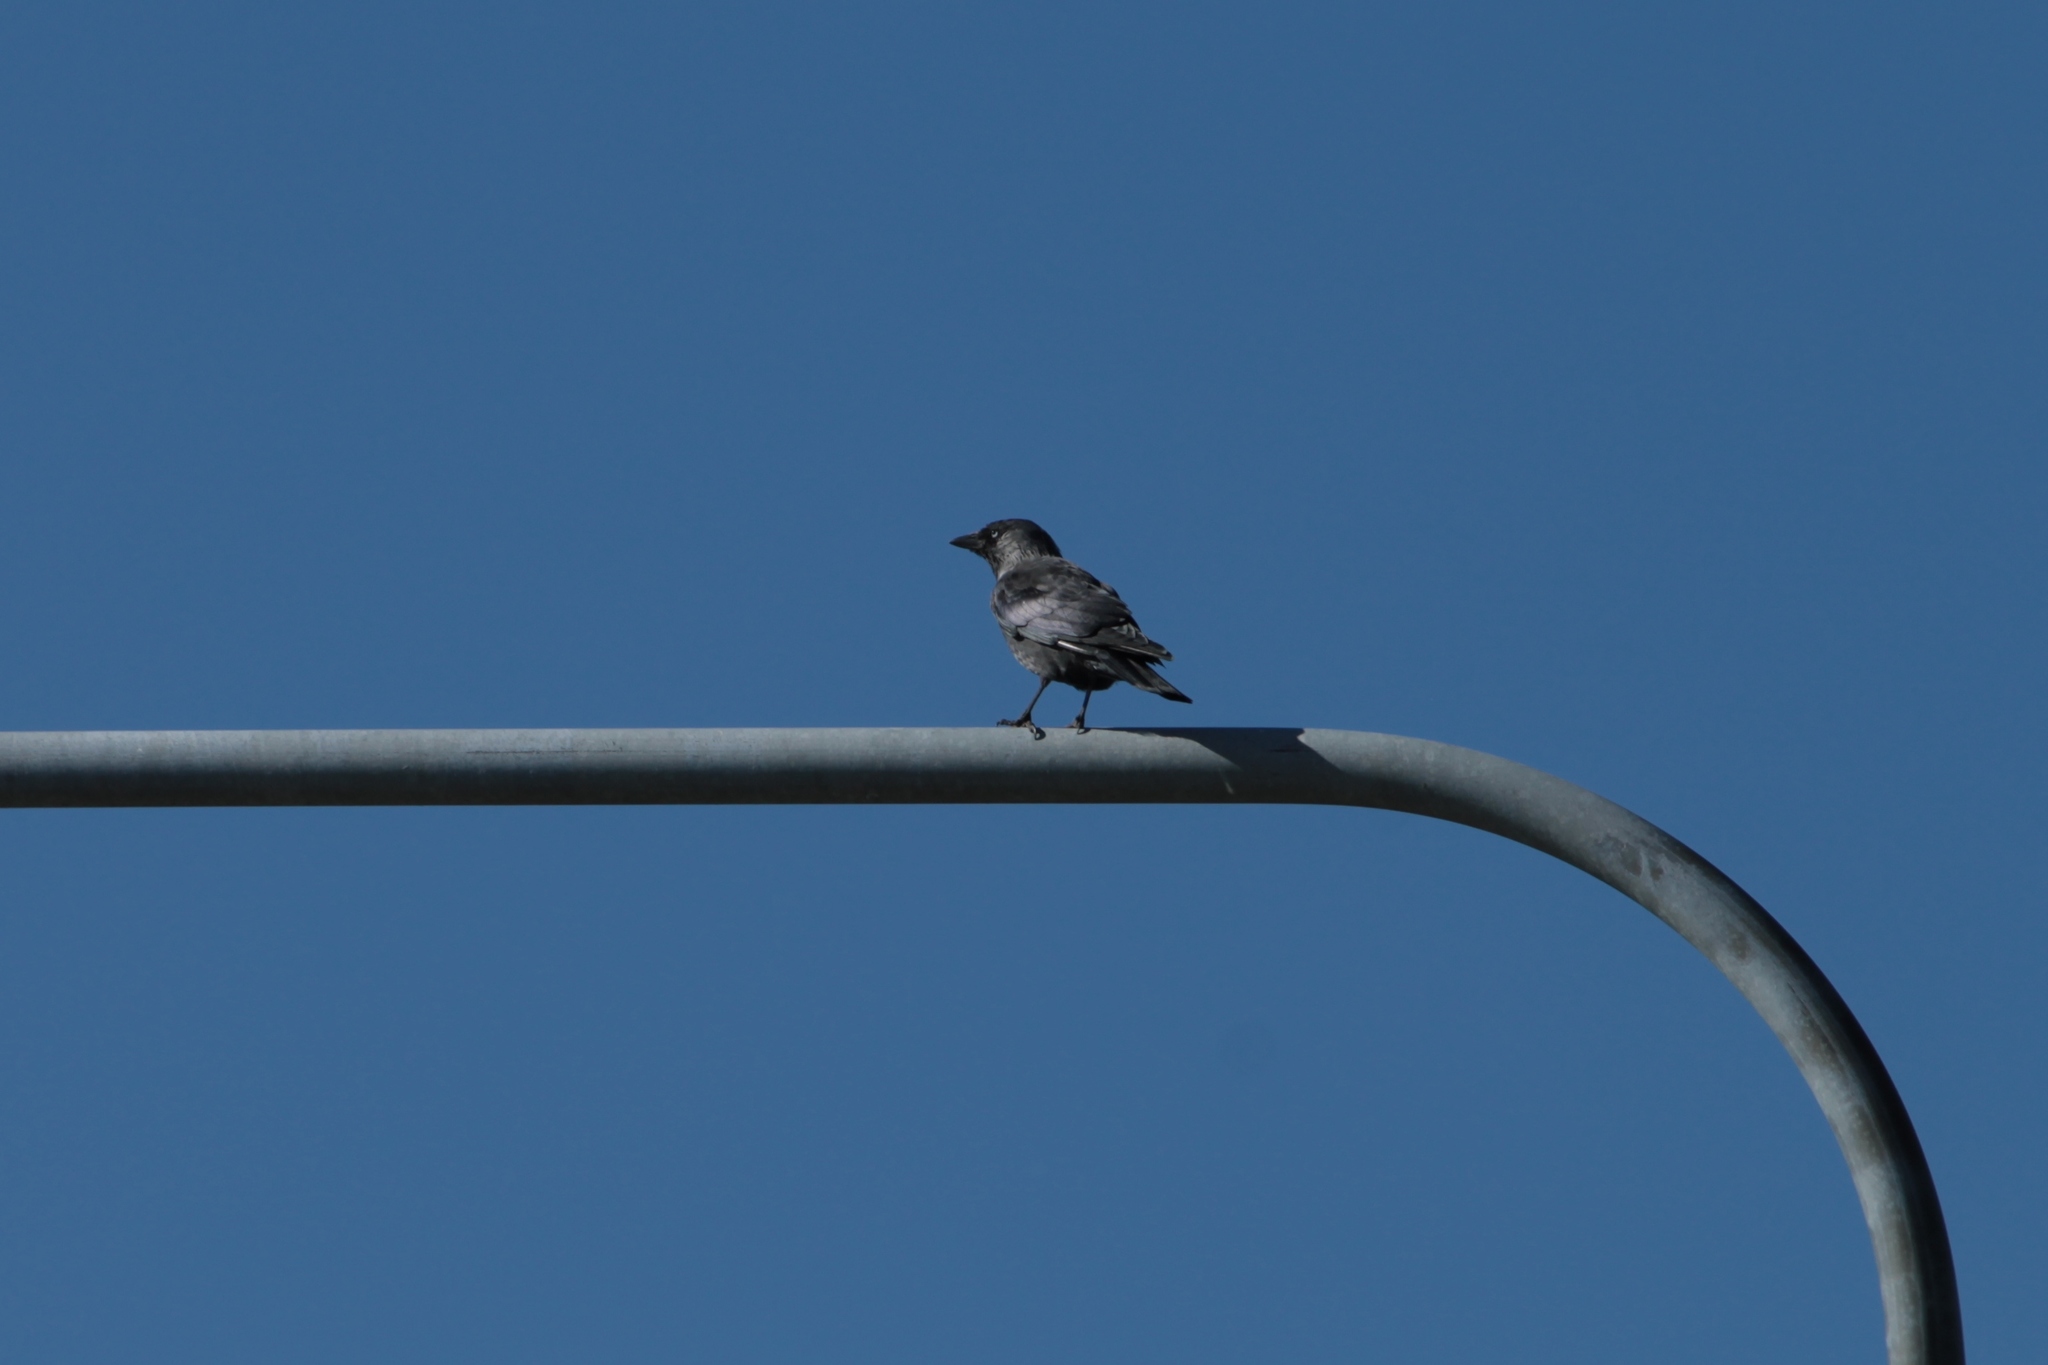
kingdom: Animalia
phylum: Chordata
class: Aves
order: Passeriformes
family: Corvidae
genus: Coloeus
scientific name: Coloeus monedula
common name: Western jackdaw
